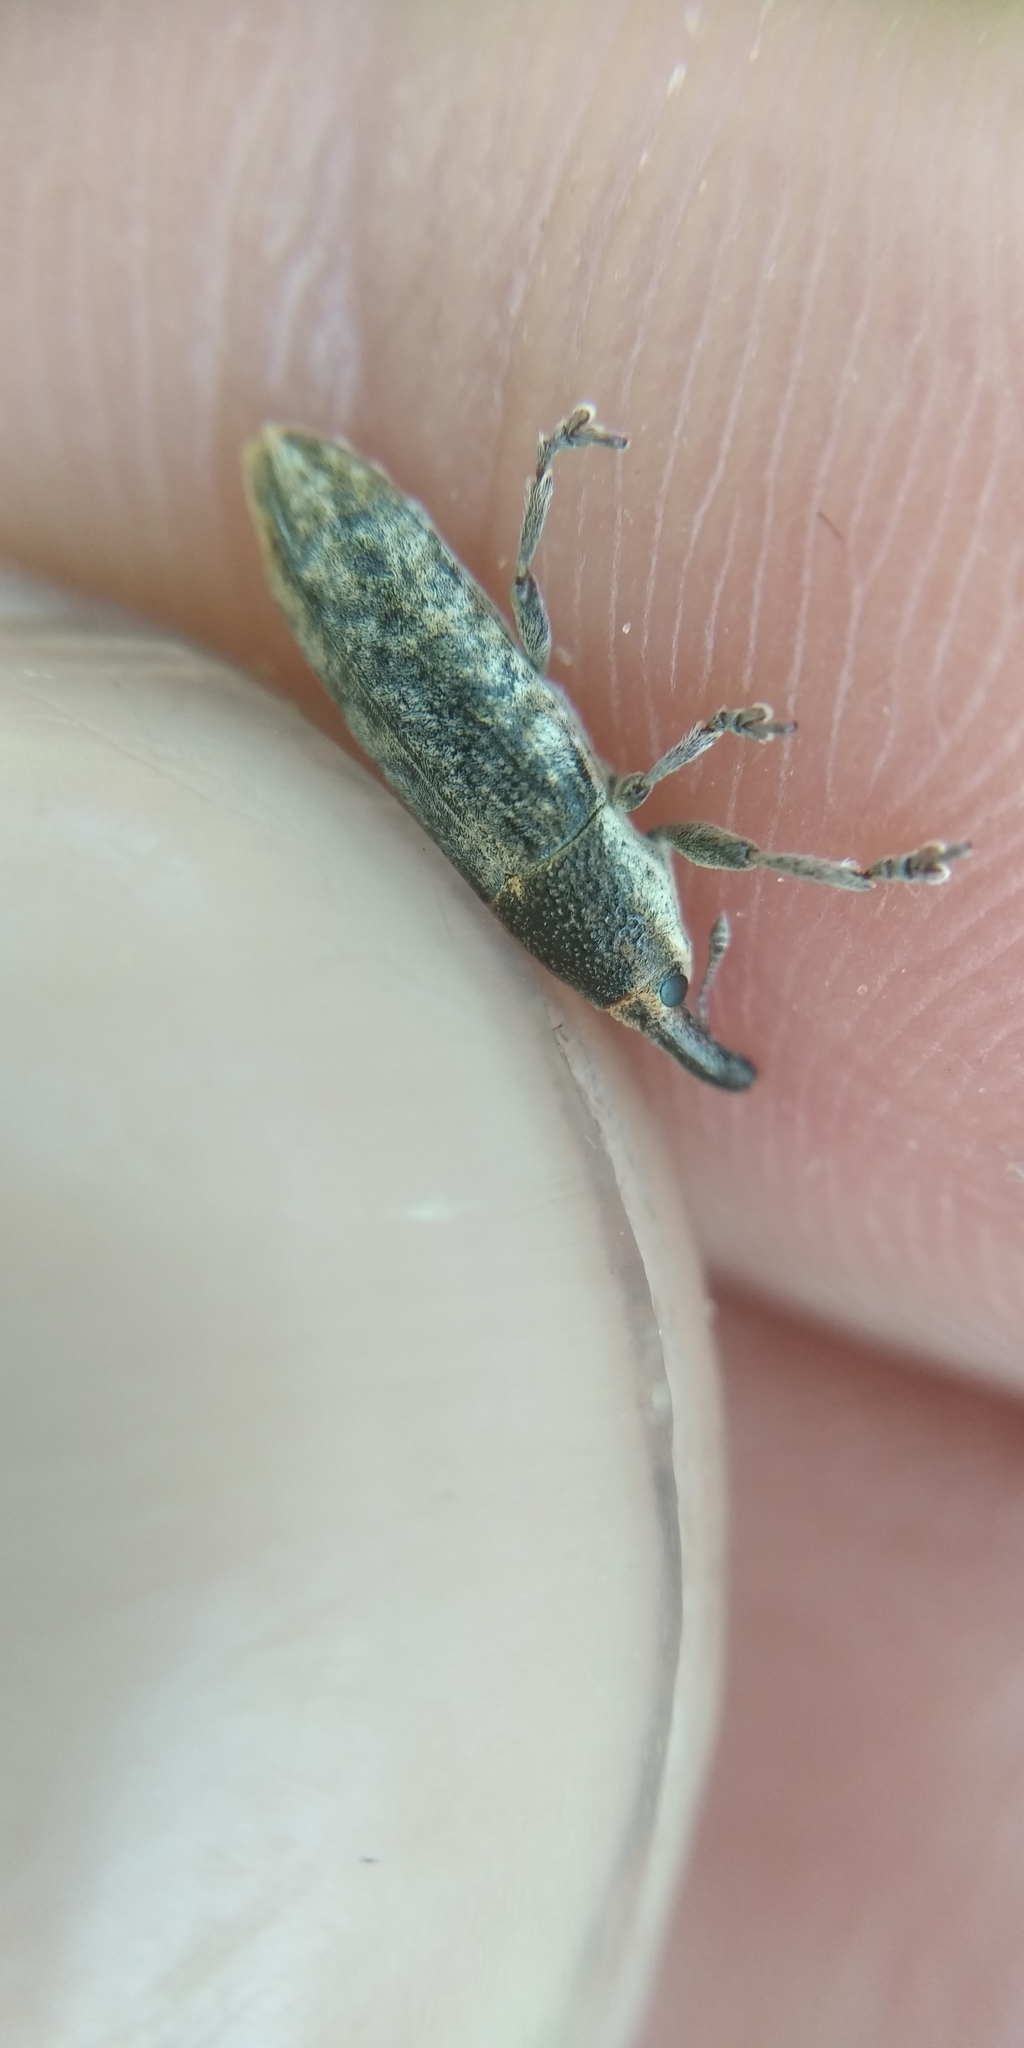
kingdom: Animalia
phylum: Arthropoda
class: Insecta
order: Coleoptera
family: Curculionidae
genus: Lixus
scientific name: Lixus subtilis
